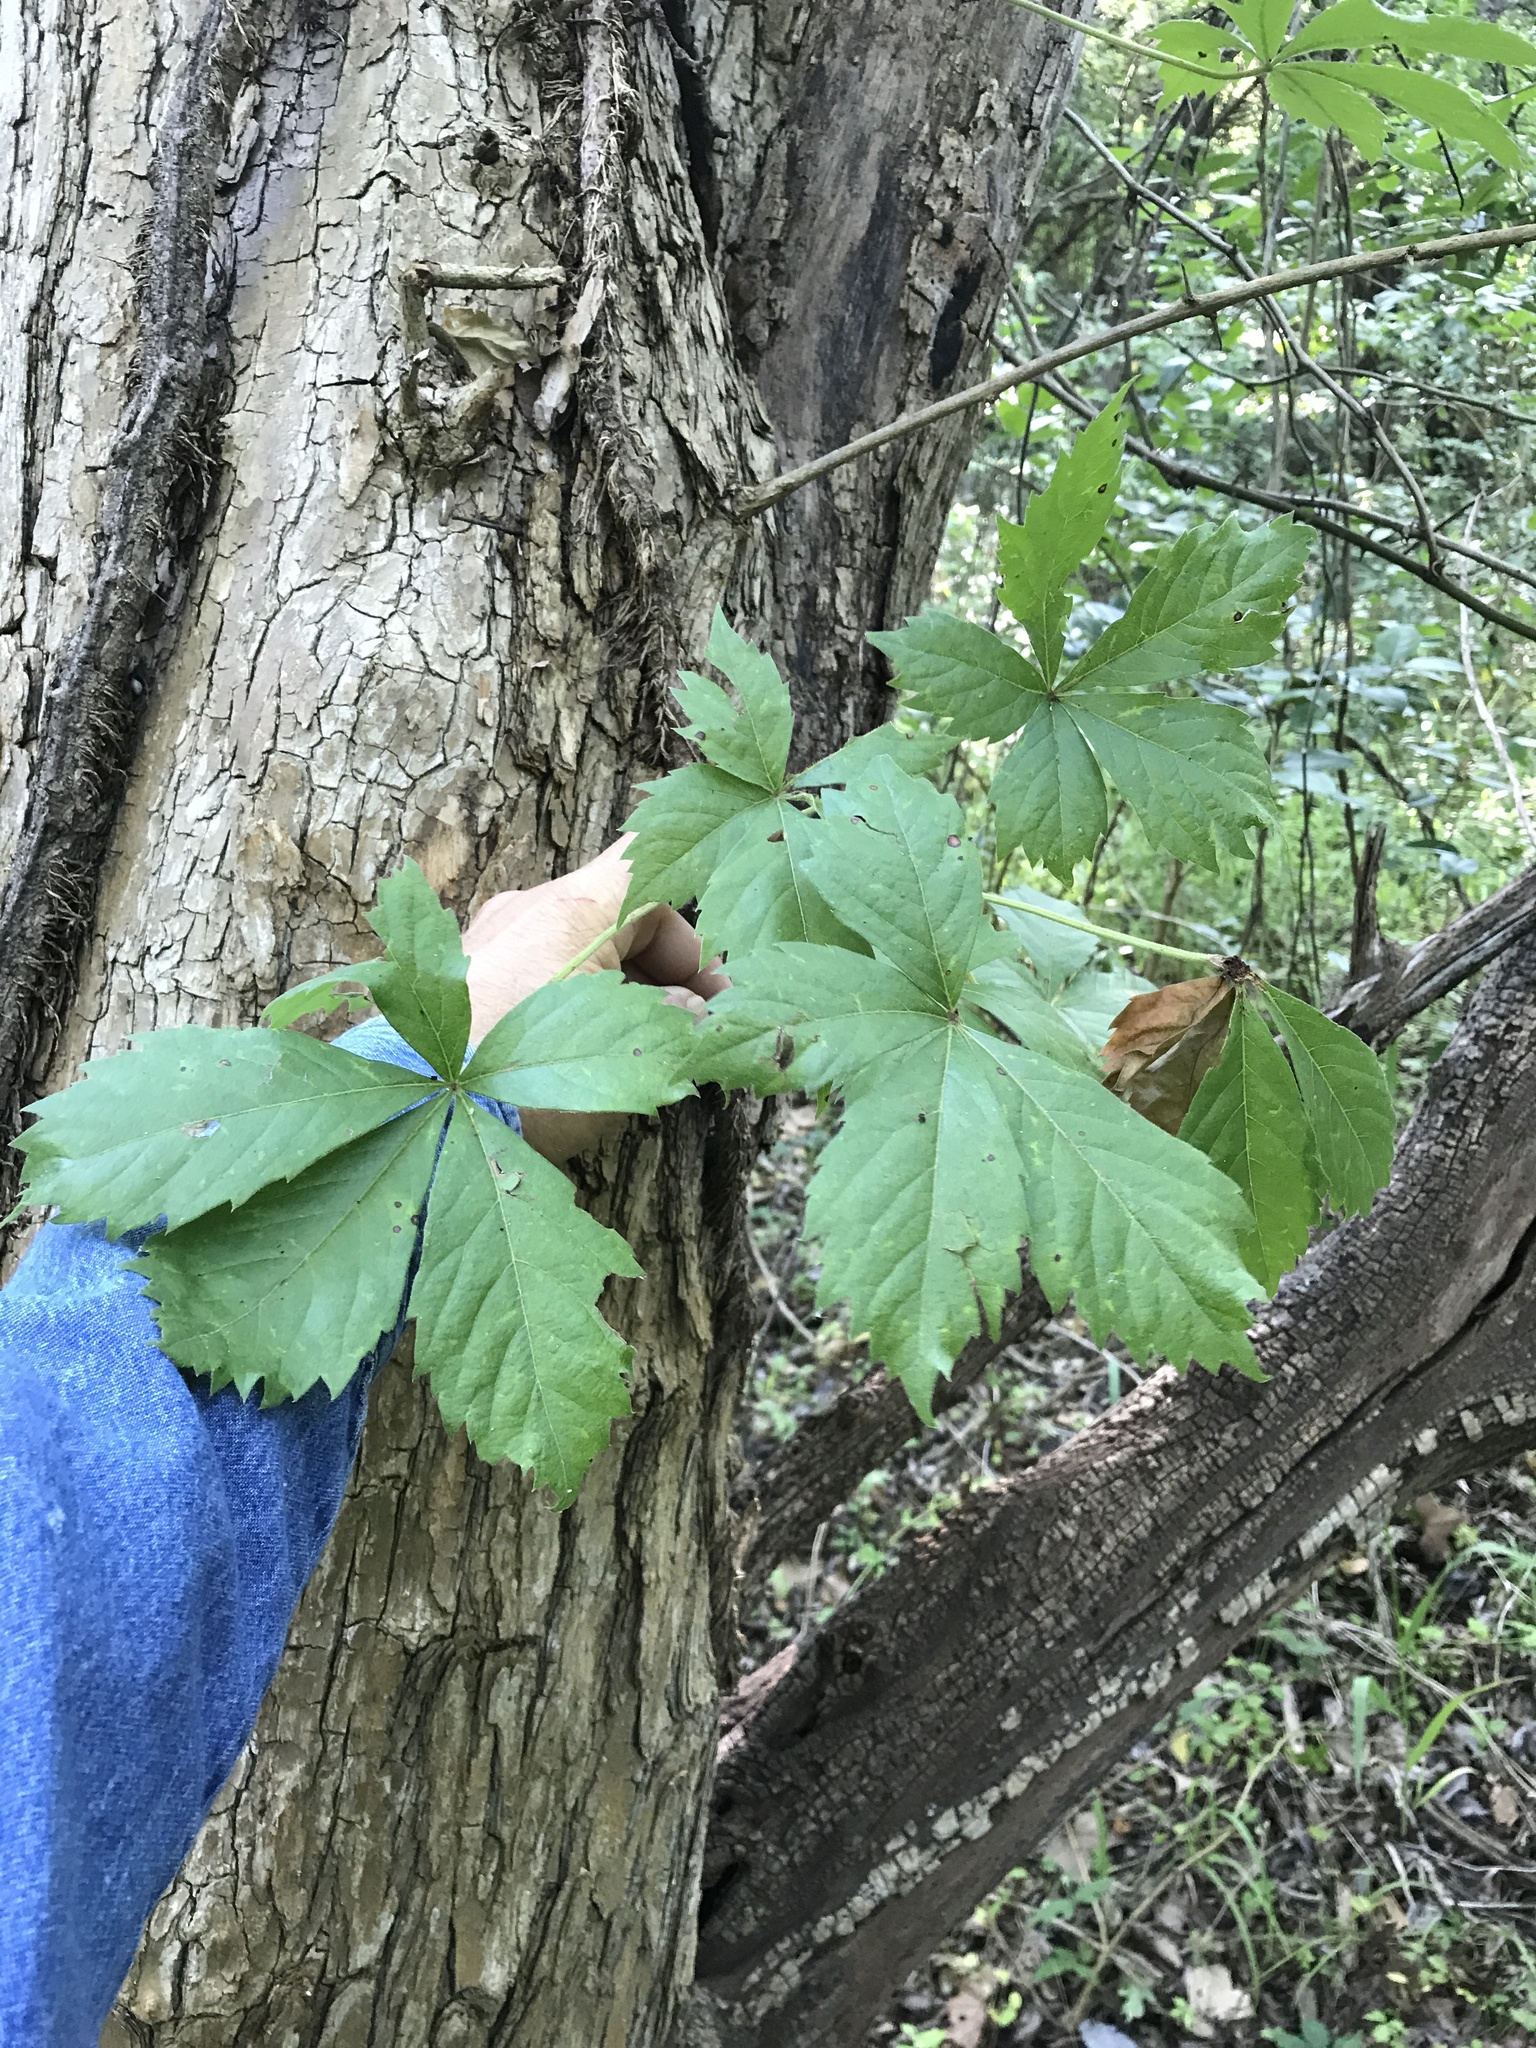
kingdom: Plantae
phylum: Tracheophyta
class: Magnoliopsida
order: Vitales
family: Vitaceae
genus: Parthenocissus
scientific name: Parthenocissus quinquefolia
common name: Virginia-creeper
